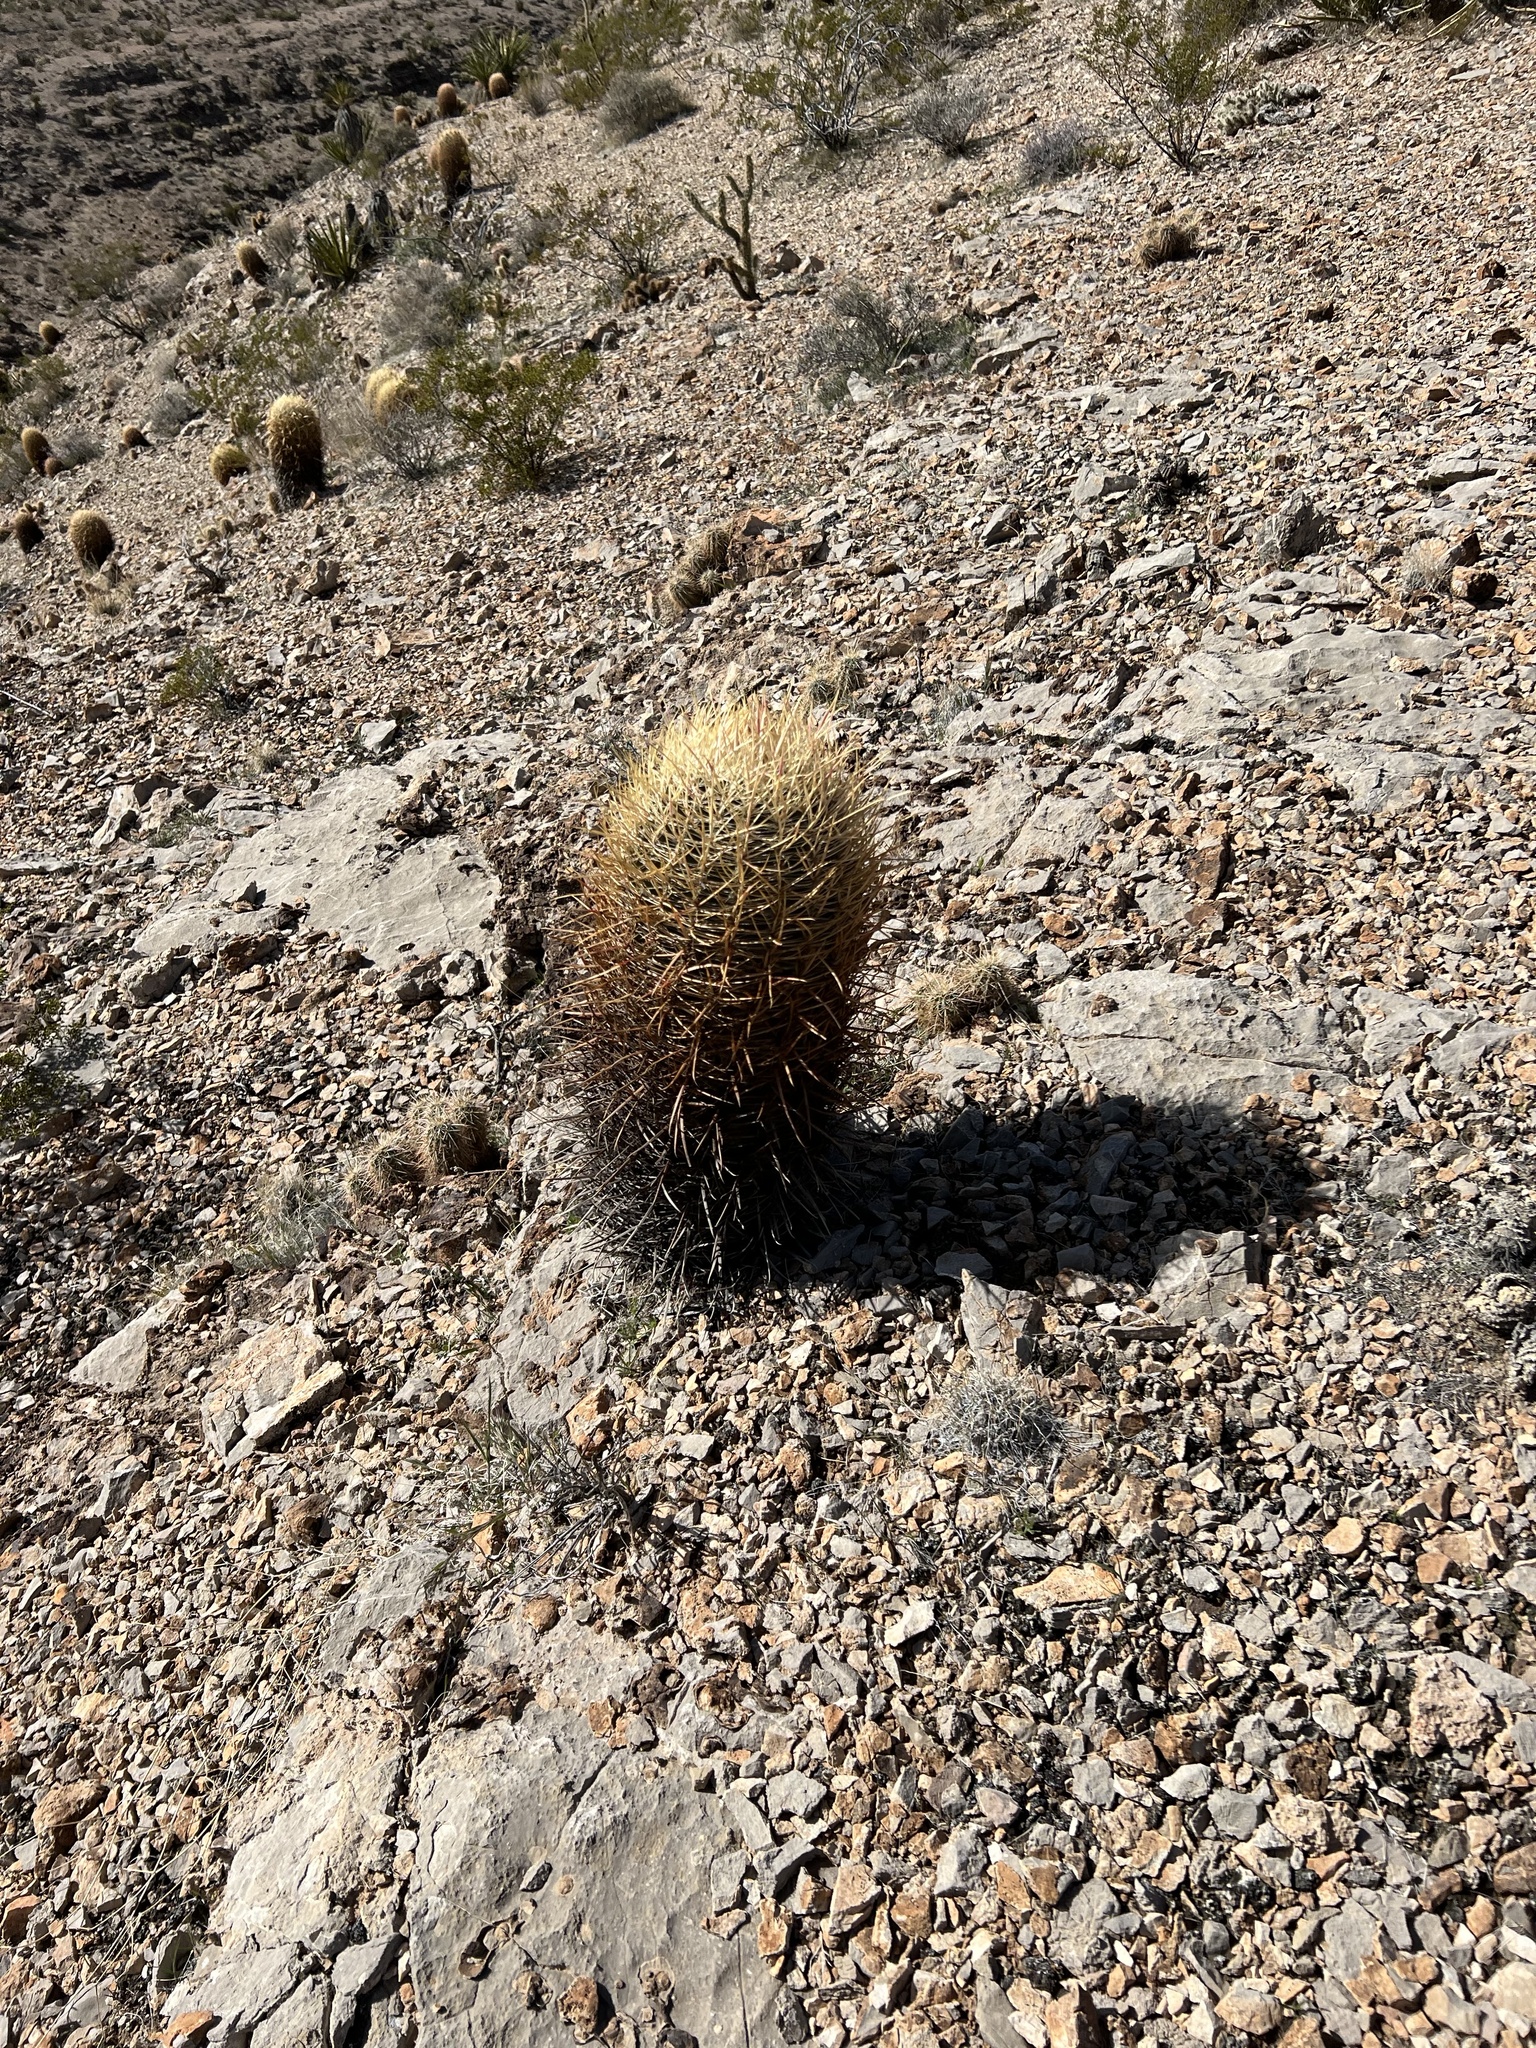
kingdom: Plantae
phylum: Tracheophyta
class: Magnoliopsida
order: Caryophyllales
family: Cactaceae
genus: Ferocactus
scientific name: Ferocactus cylindraceus
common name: California barrel cactus
